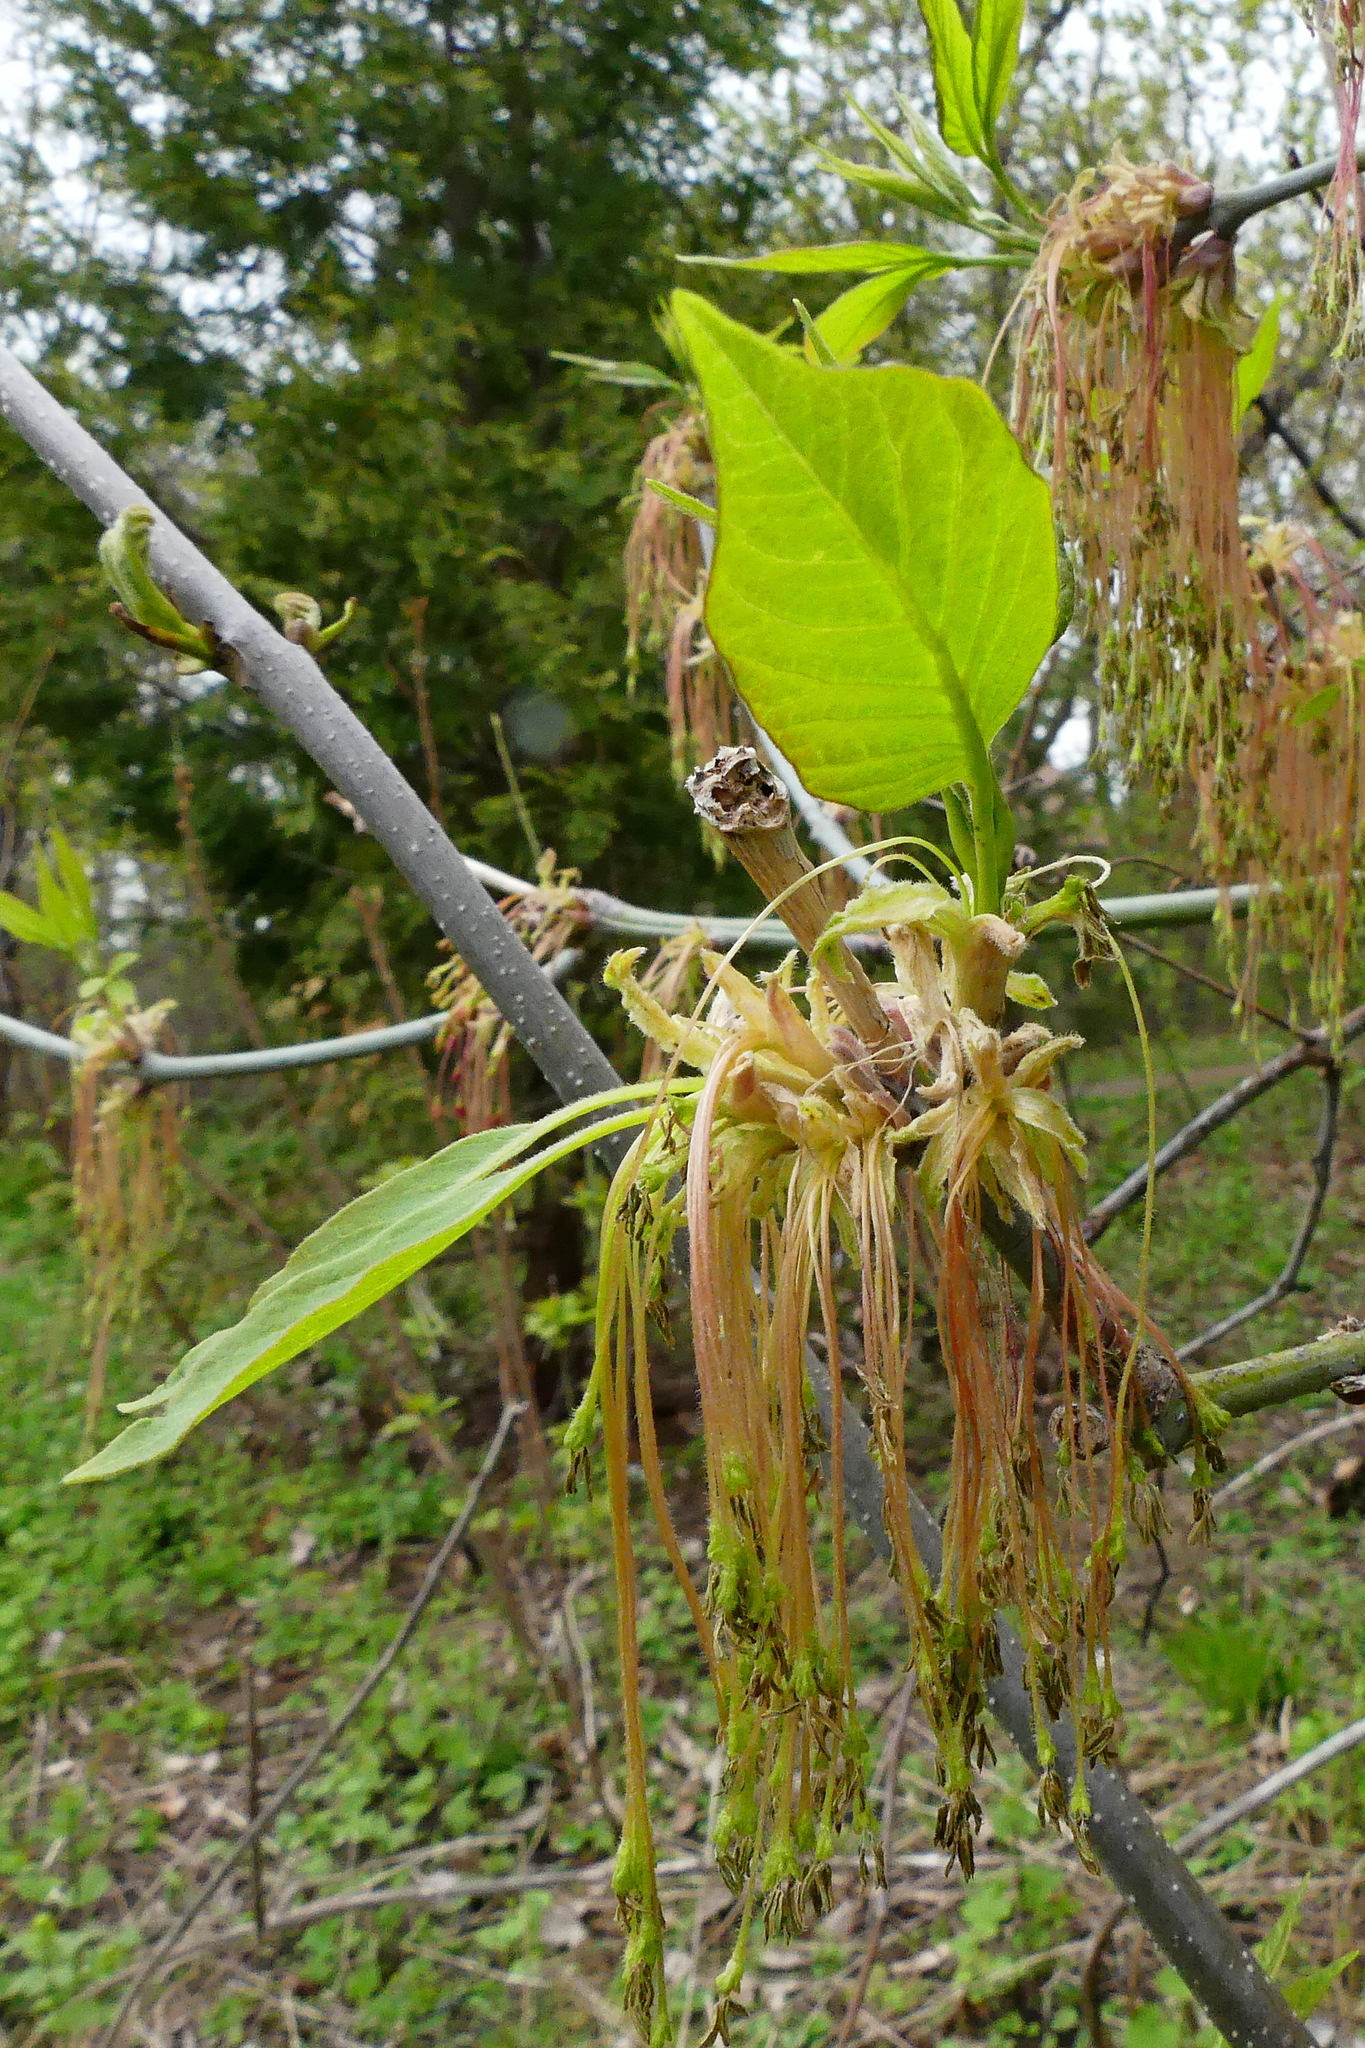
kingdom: Plantae
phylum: Tracheophyta
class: Magnoliopsida
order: Sapindales
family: Sapindaceae
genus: Acer
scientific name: Acer negundo
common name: Ashleaf maple
